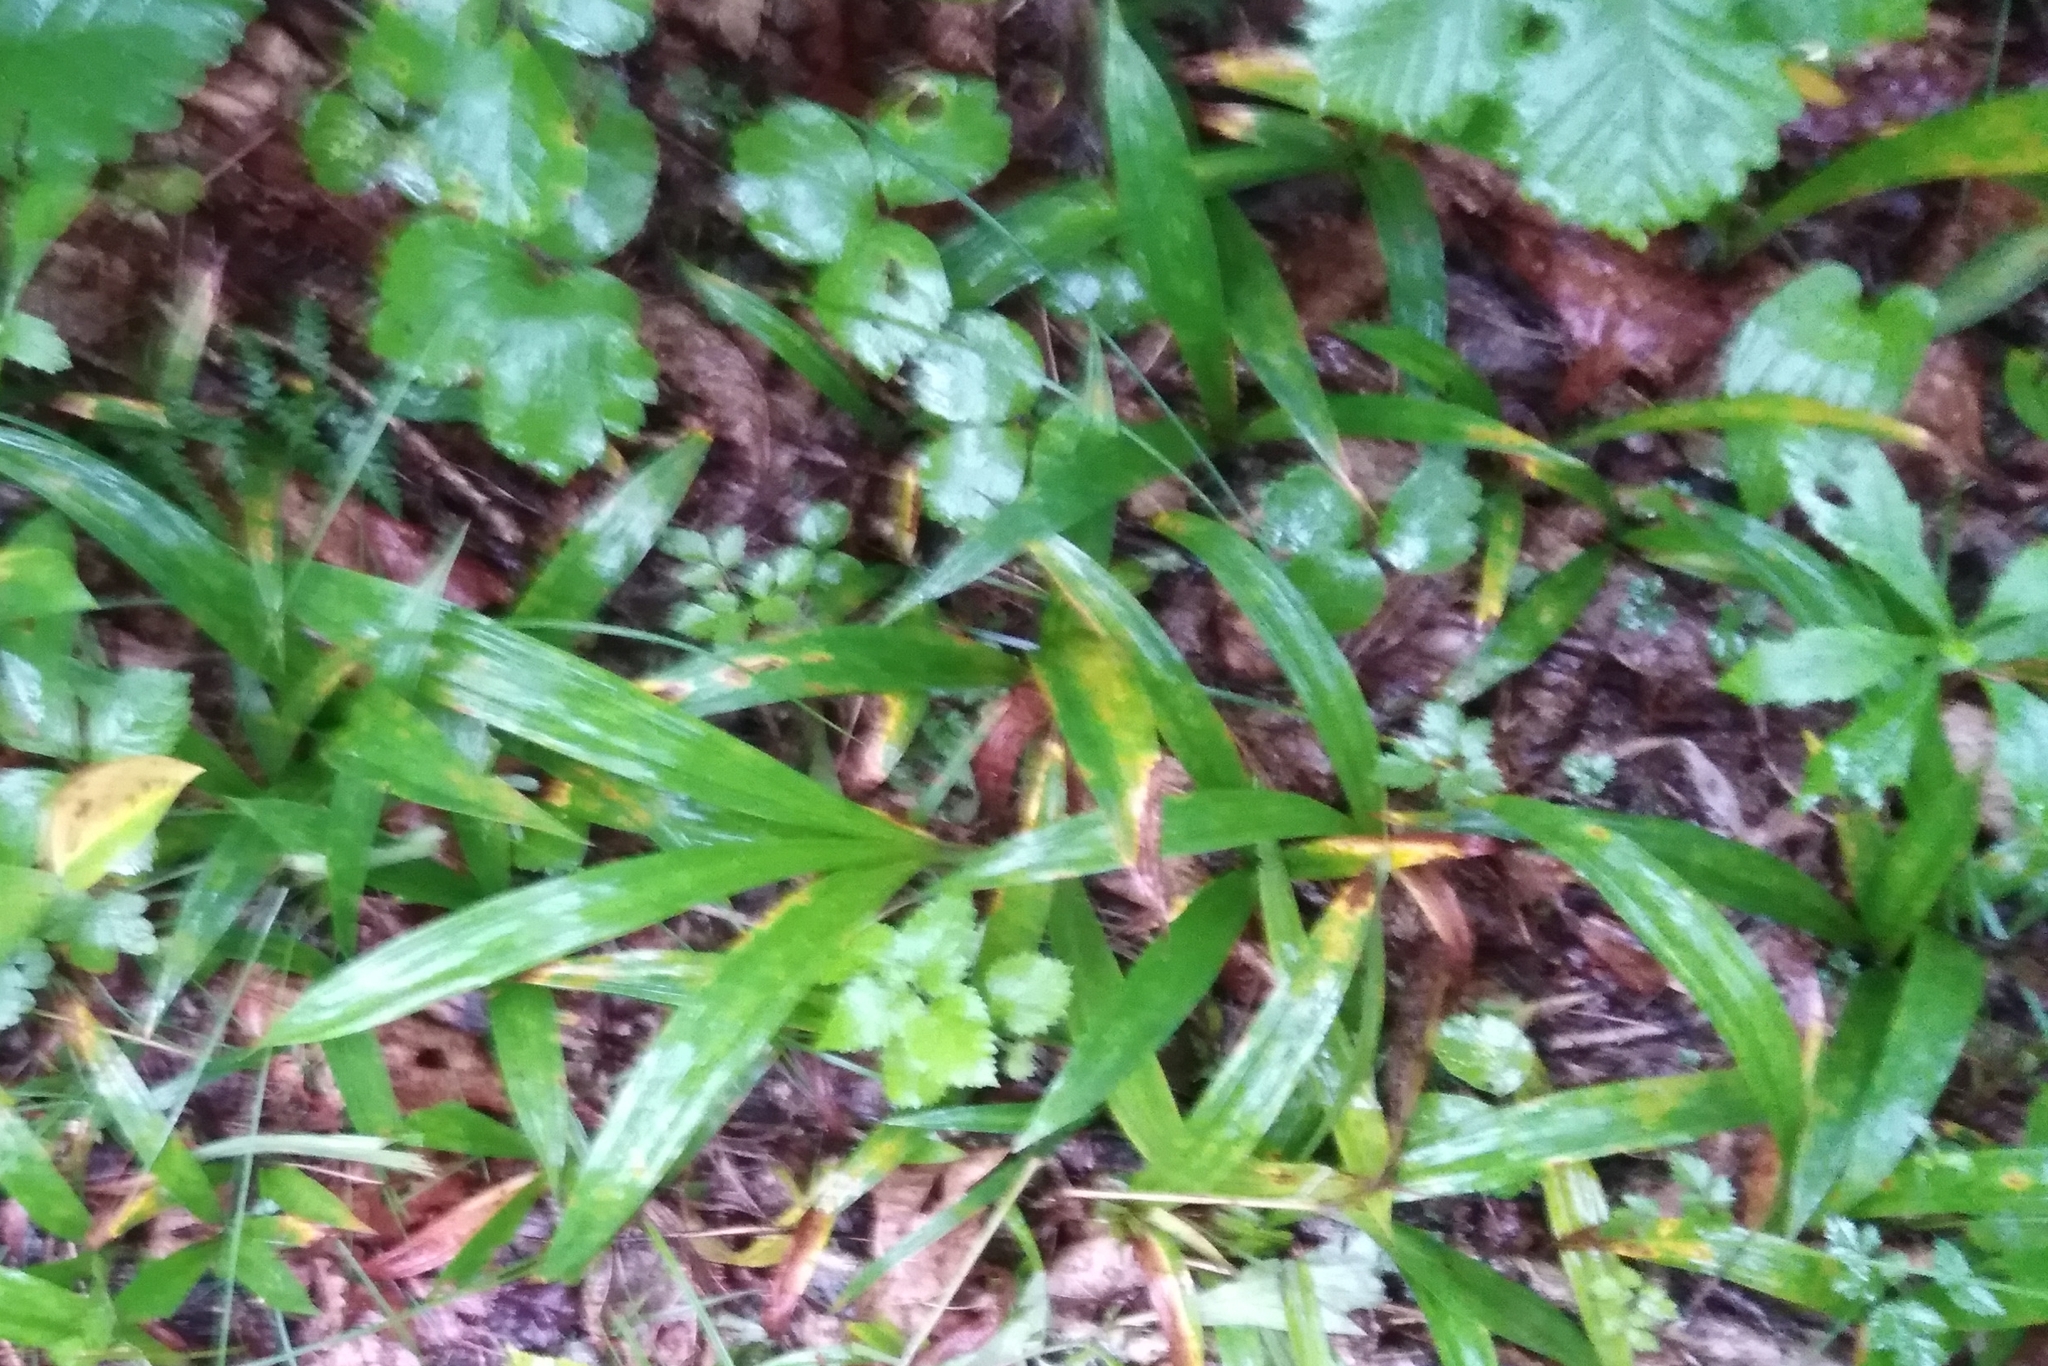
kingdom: Plantae
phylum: Tracheophyta
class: Liliopsida
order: Poales
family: Cyperaceae
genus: Carex
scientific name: Carex siderosticta
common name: Broadleaf sedge
